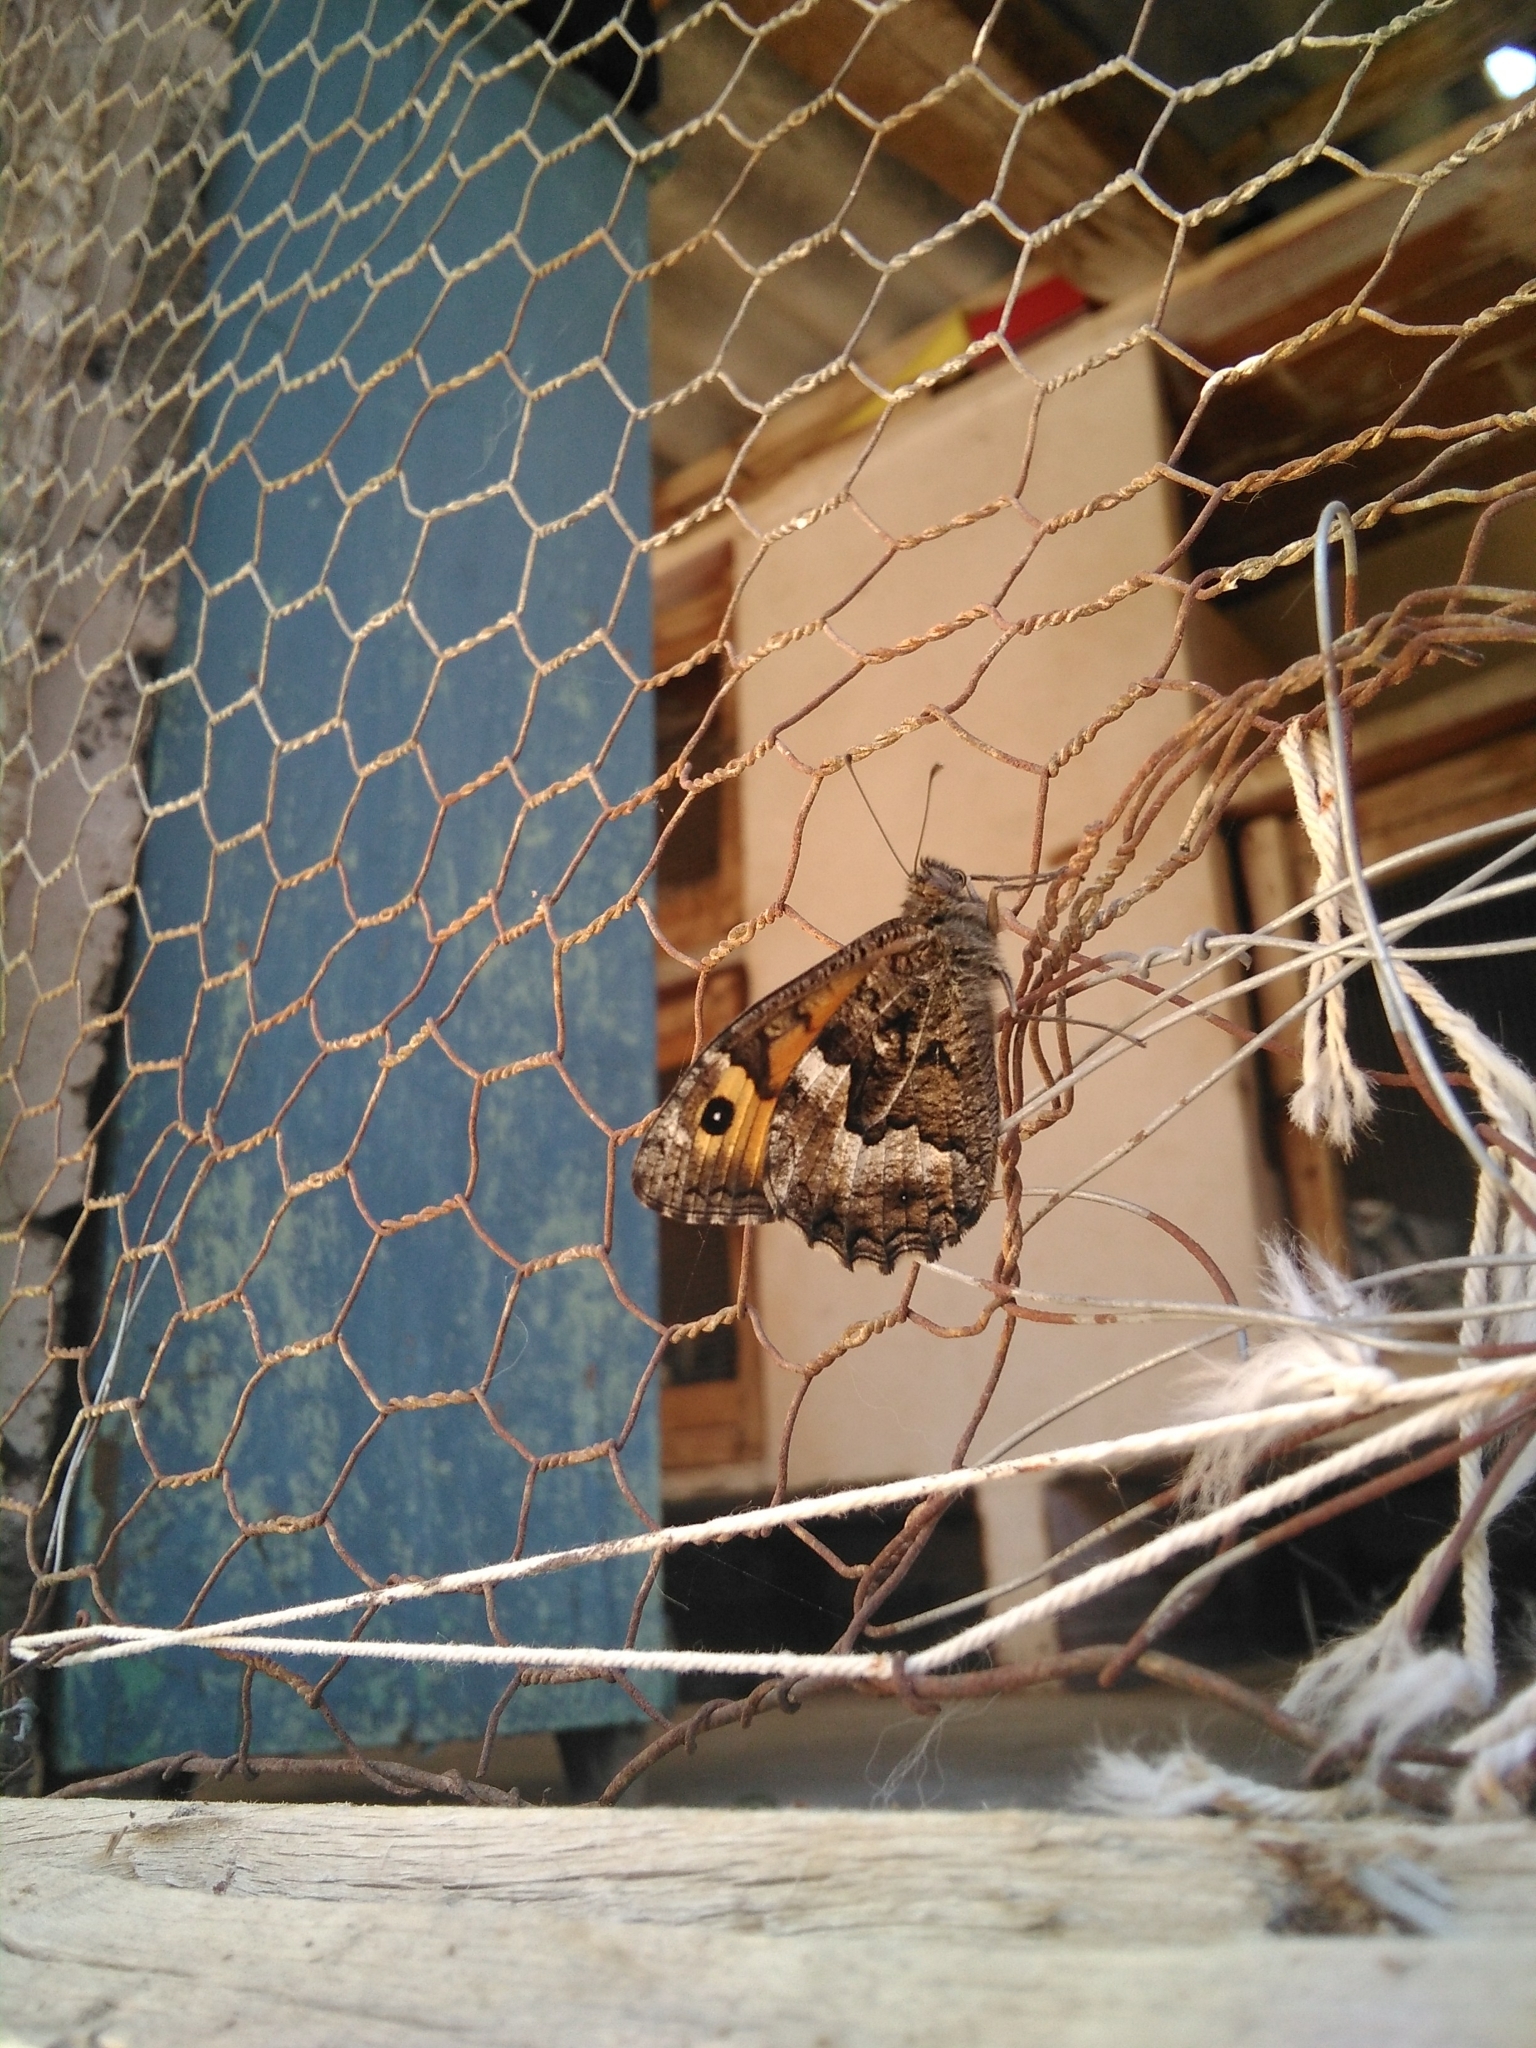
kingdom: Animalia
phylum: Arthropoda
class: Insecta
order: Lepidoptera
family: Nymphalidae
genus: Hipparchia
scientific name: Hipparchia semele
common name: Grayling
